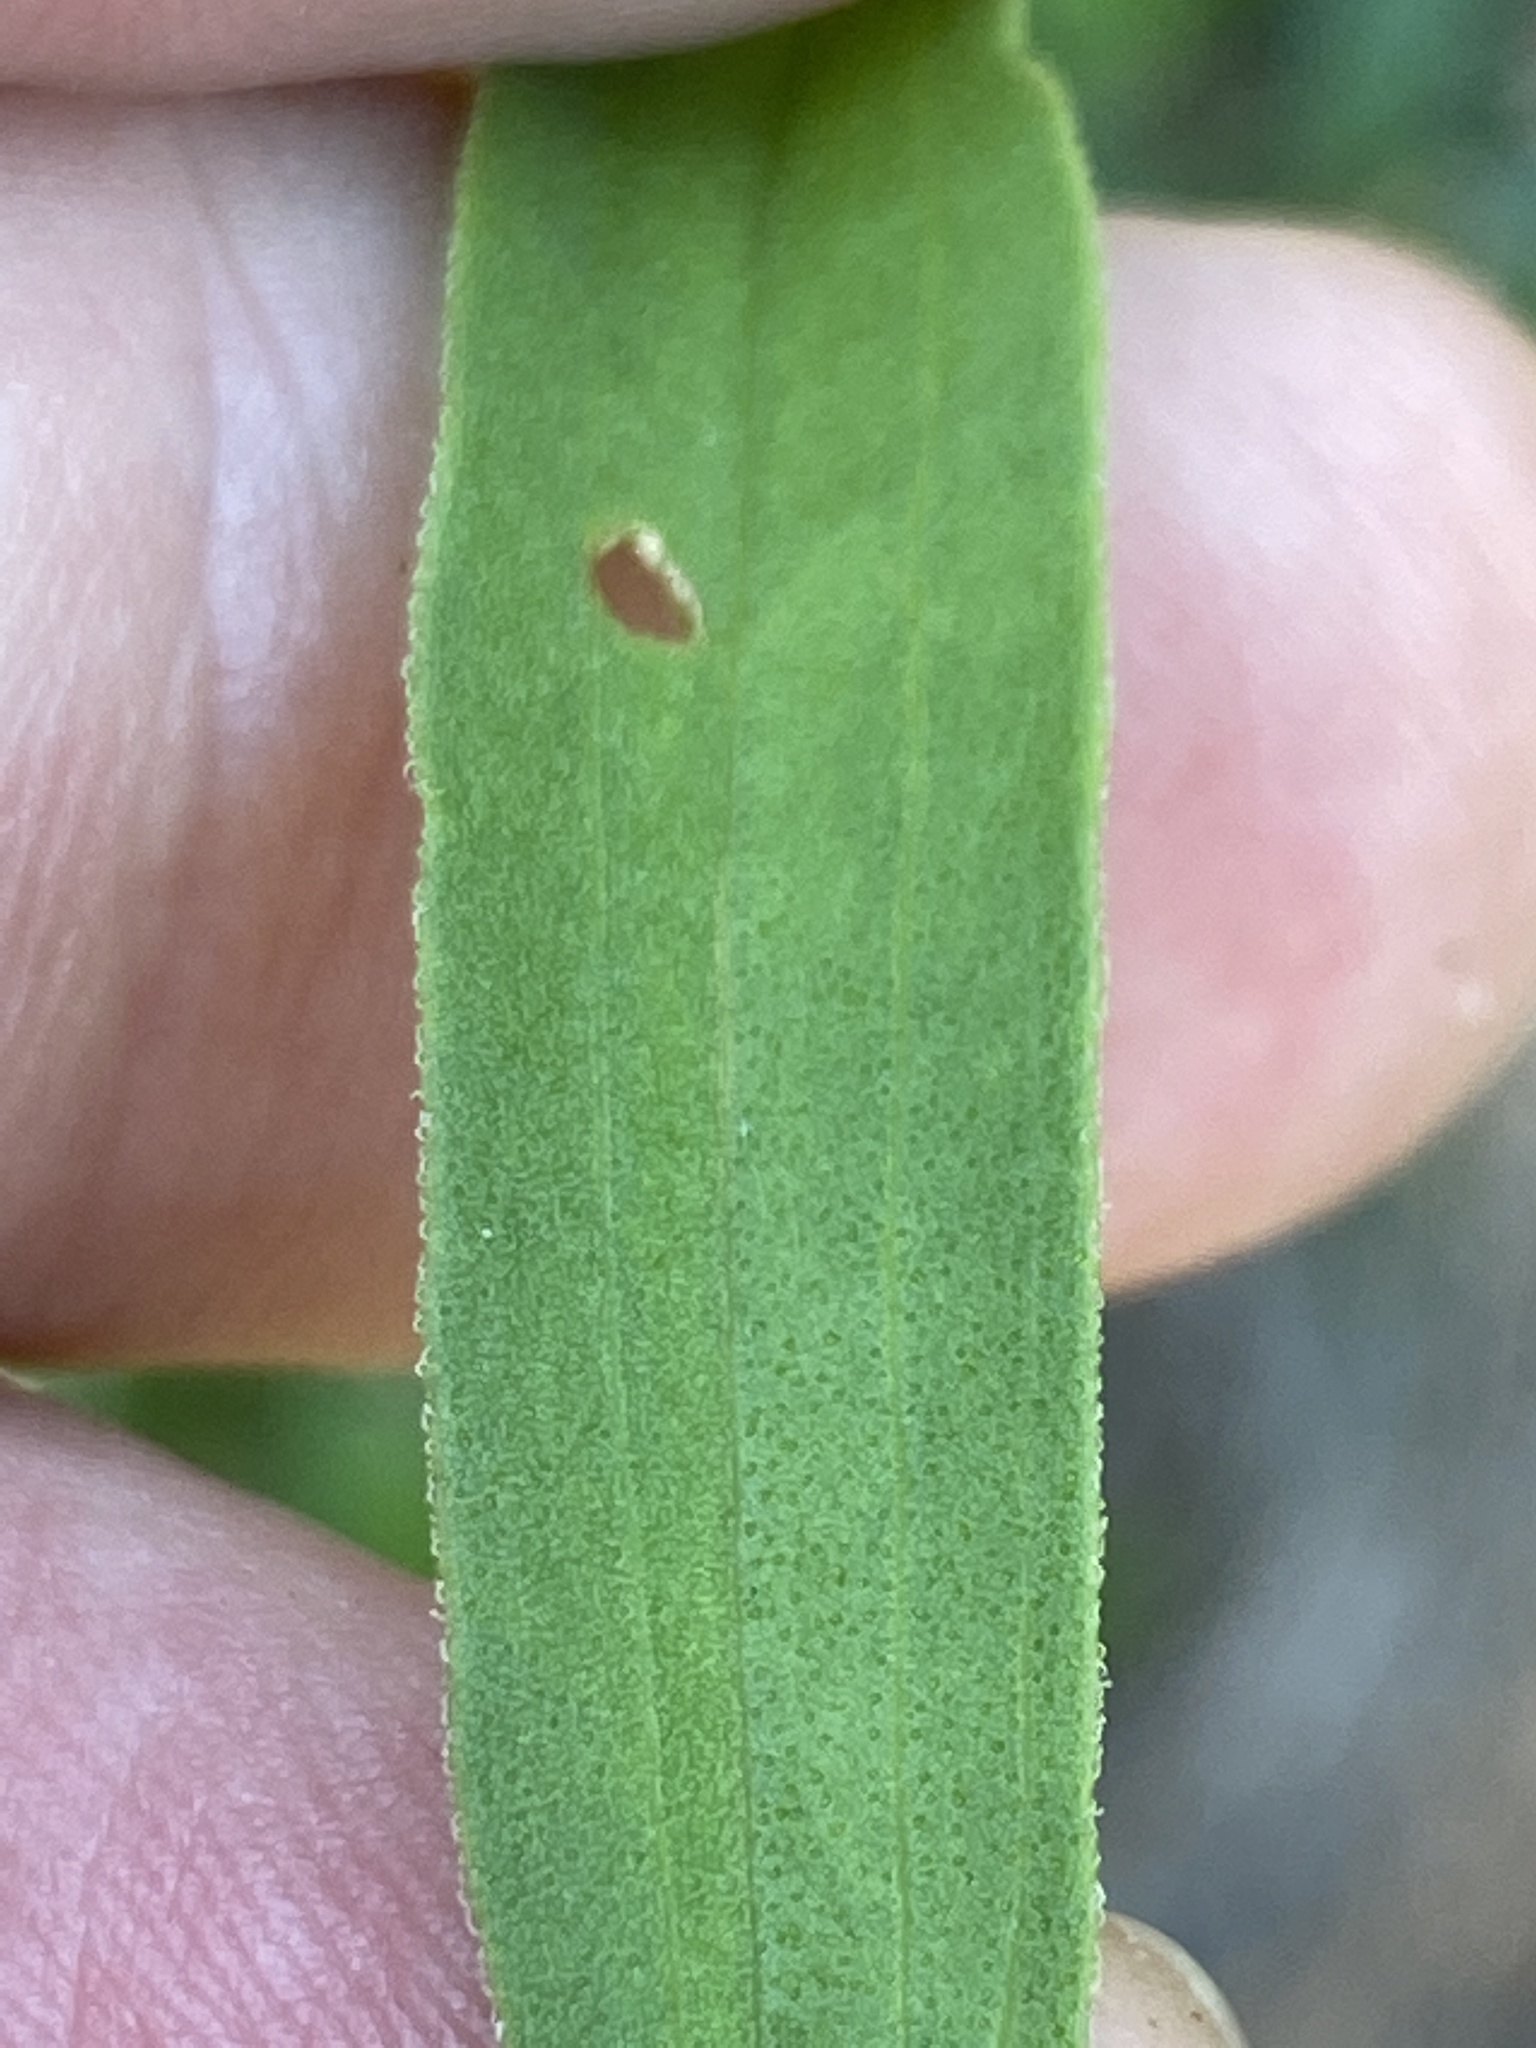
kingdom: Plantae
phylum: Tracheophyta
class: Magnoliopsida
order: Asterales
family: Asteraceae
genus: Carphephorus
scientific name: Carphephorus bellidifolius
